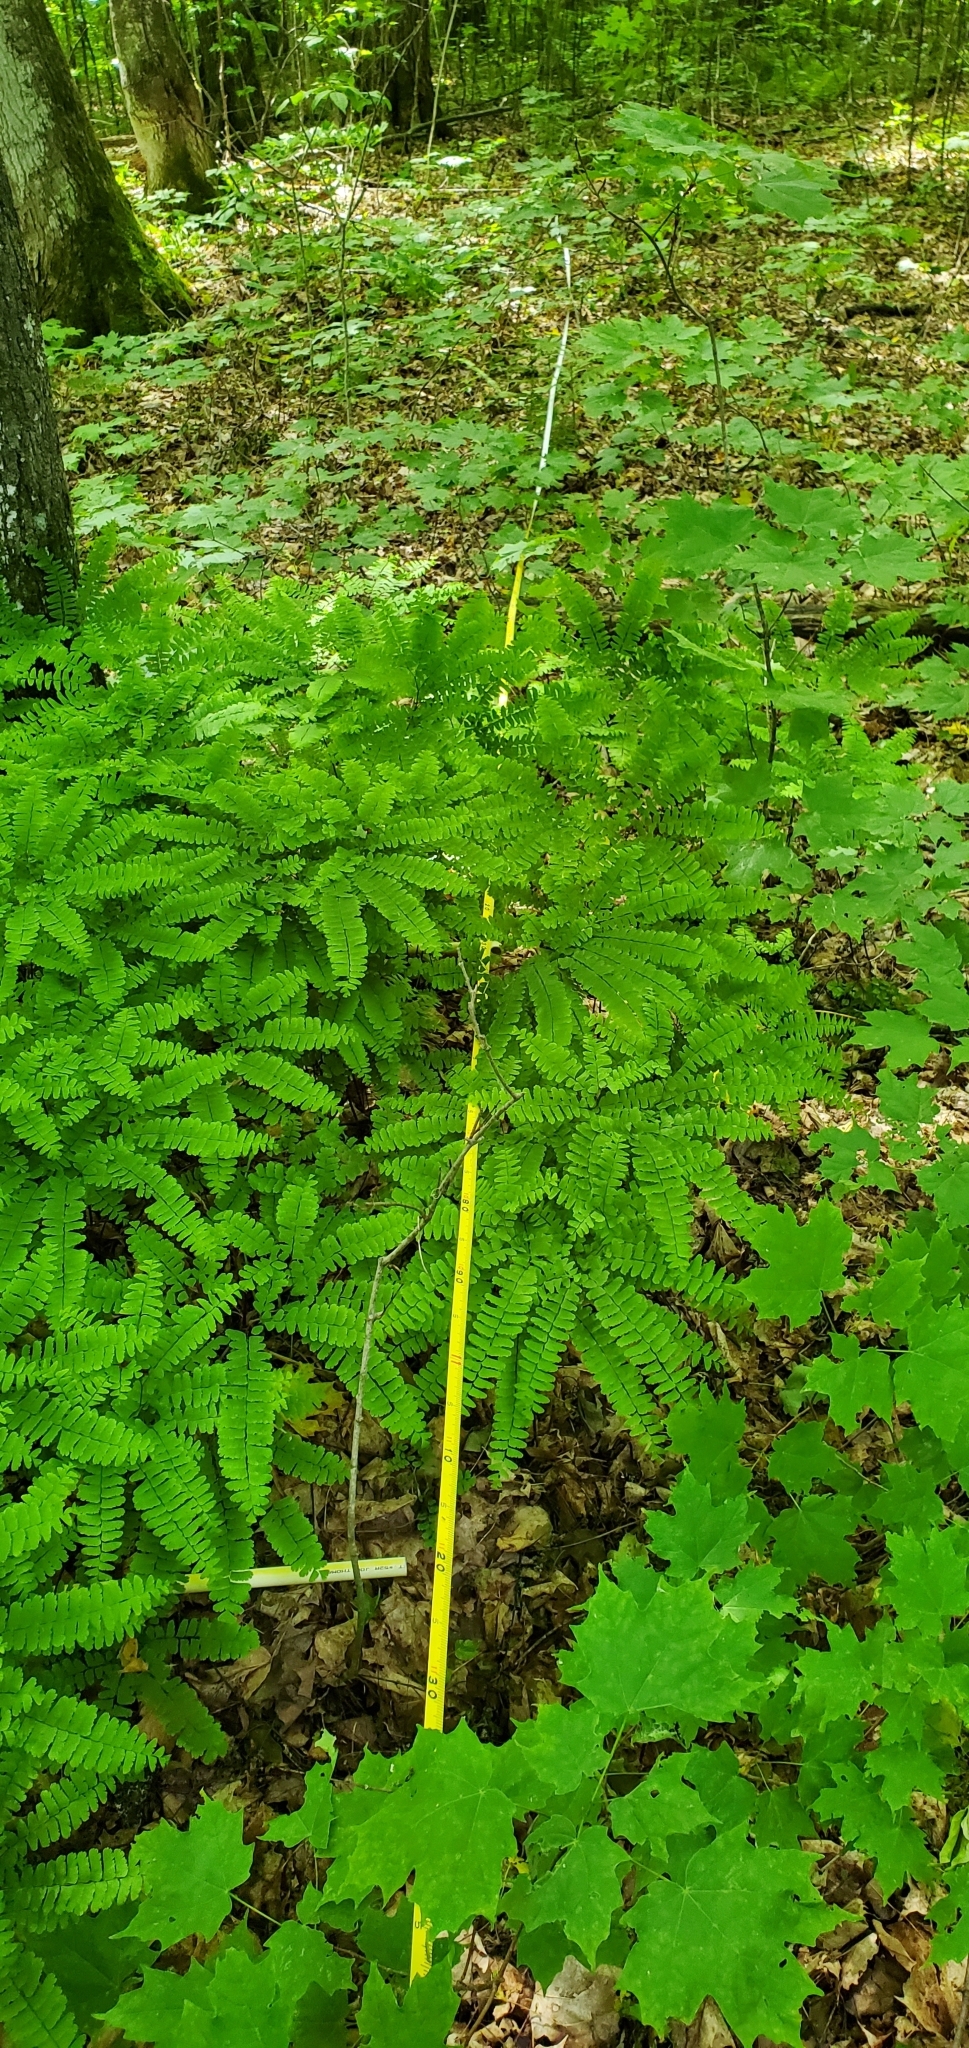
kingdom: Plantae
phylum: Tracheophyta
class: Polypodiopsida
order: Polypodiales
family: Pteridaceae
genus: Adiantum
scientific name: Adiantum pedatum
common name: Five-finger fern
